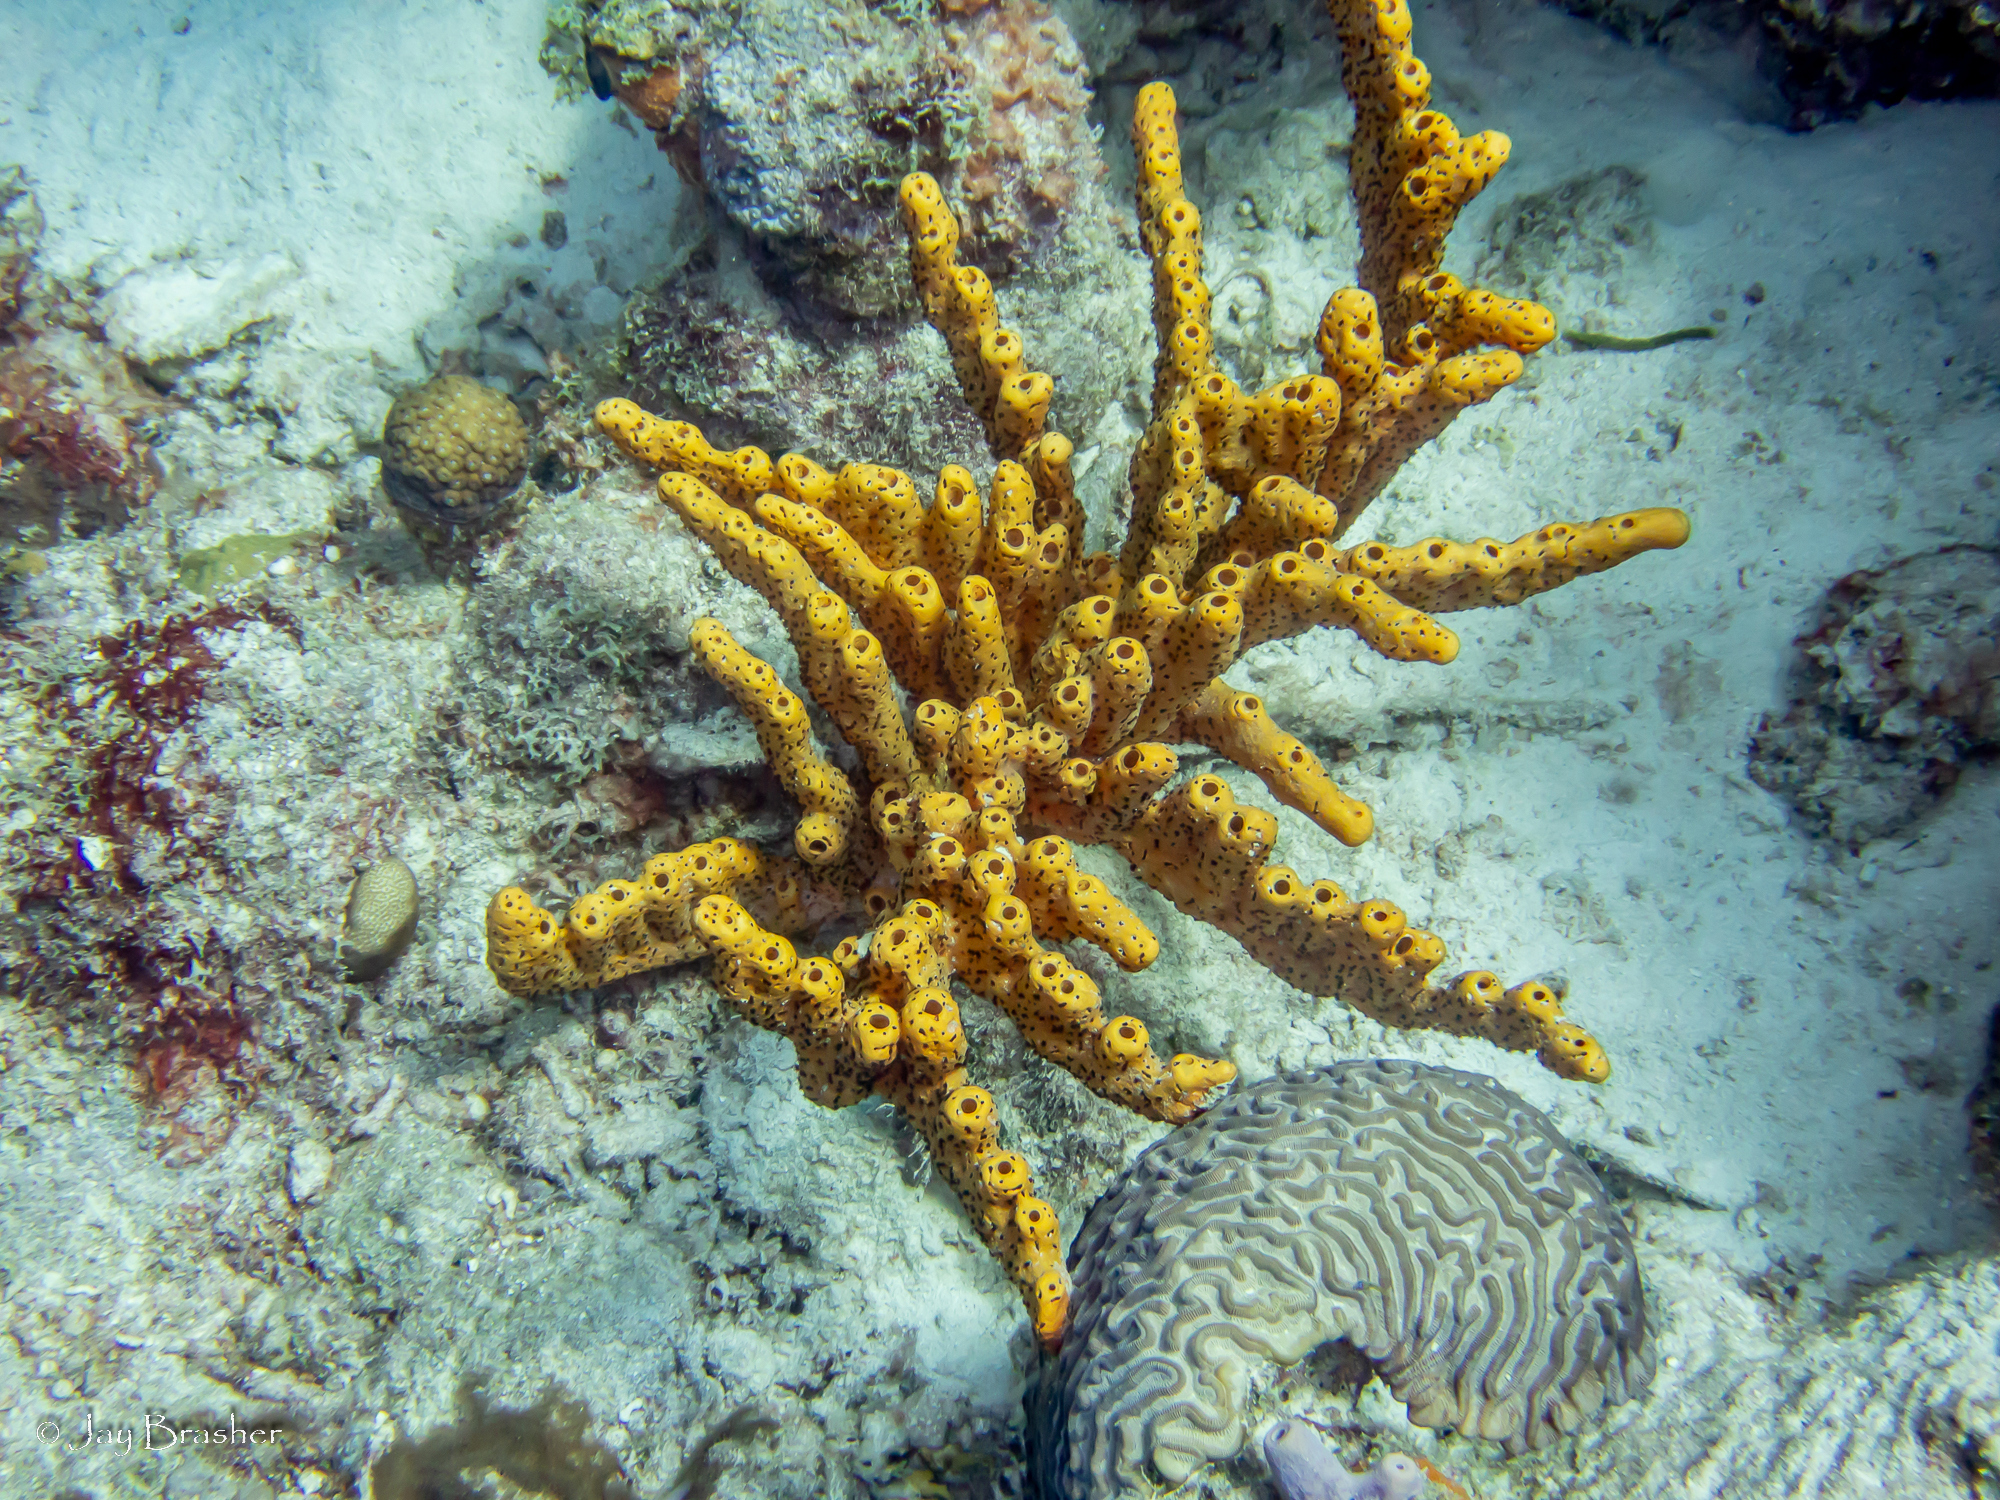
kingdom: Animalia
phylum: Cnidaria
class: Anthozoa
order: Scleractinia
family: Faviidae
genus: Colpophyllia
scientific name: Colpophyllia natans
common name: Boulder brain coral
